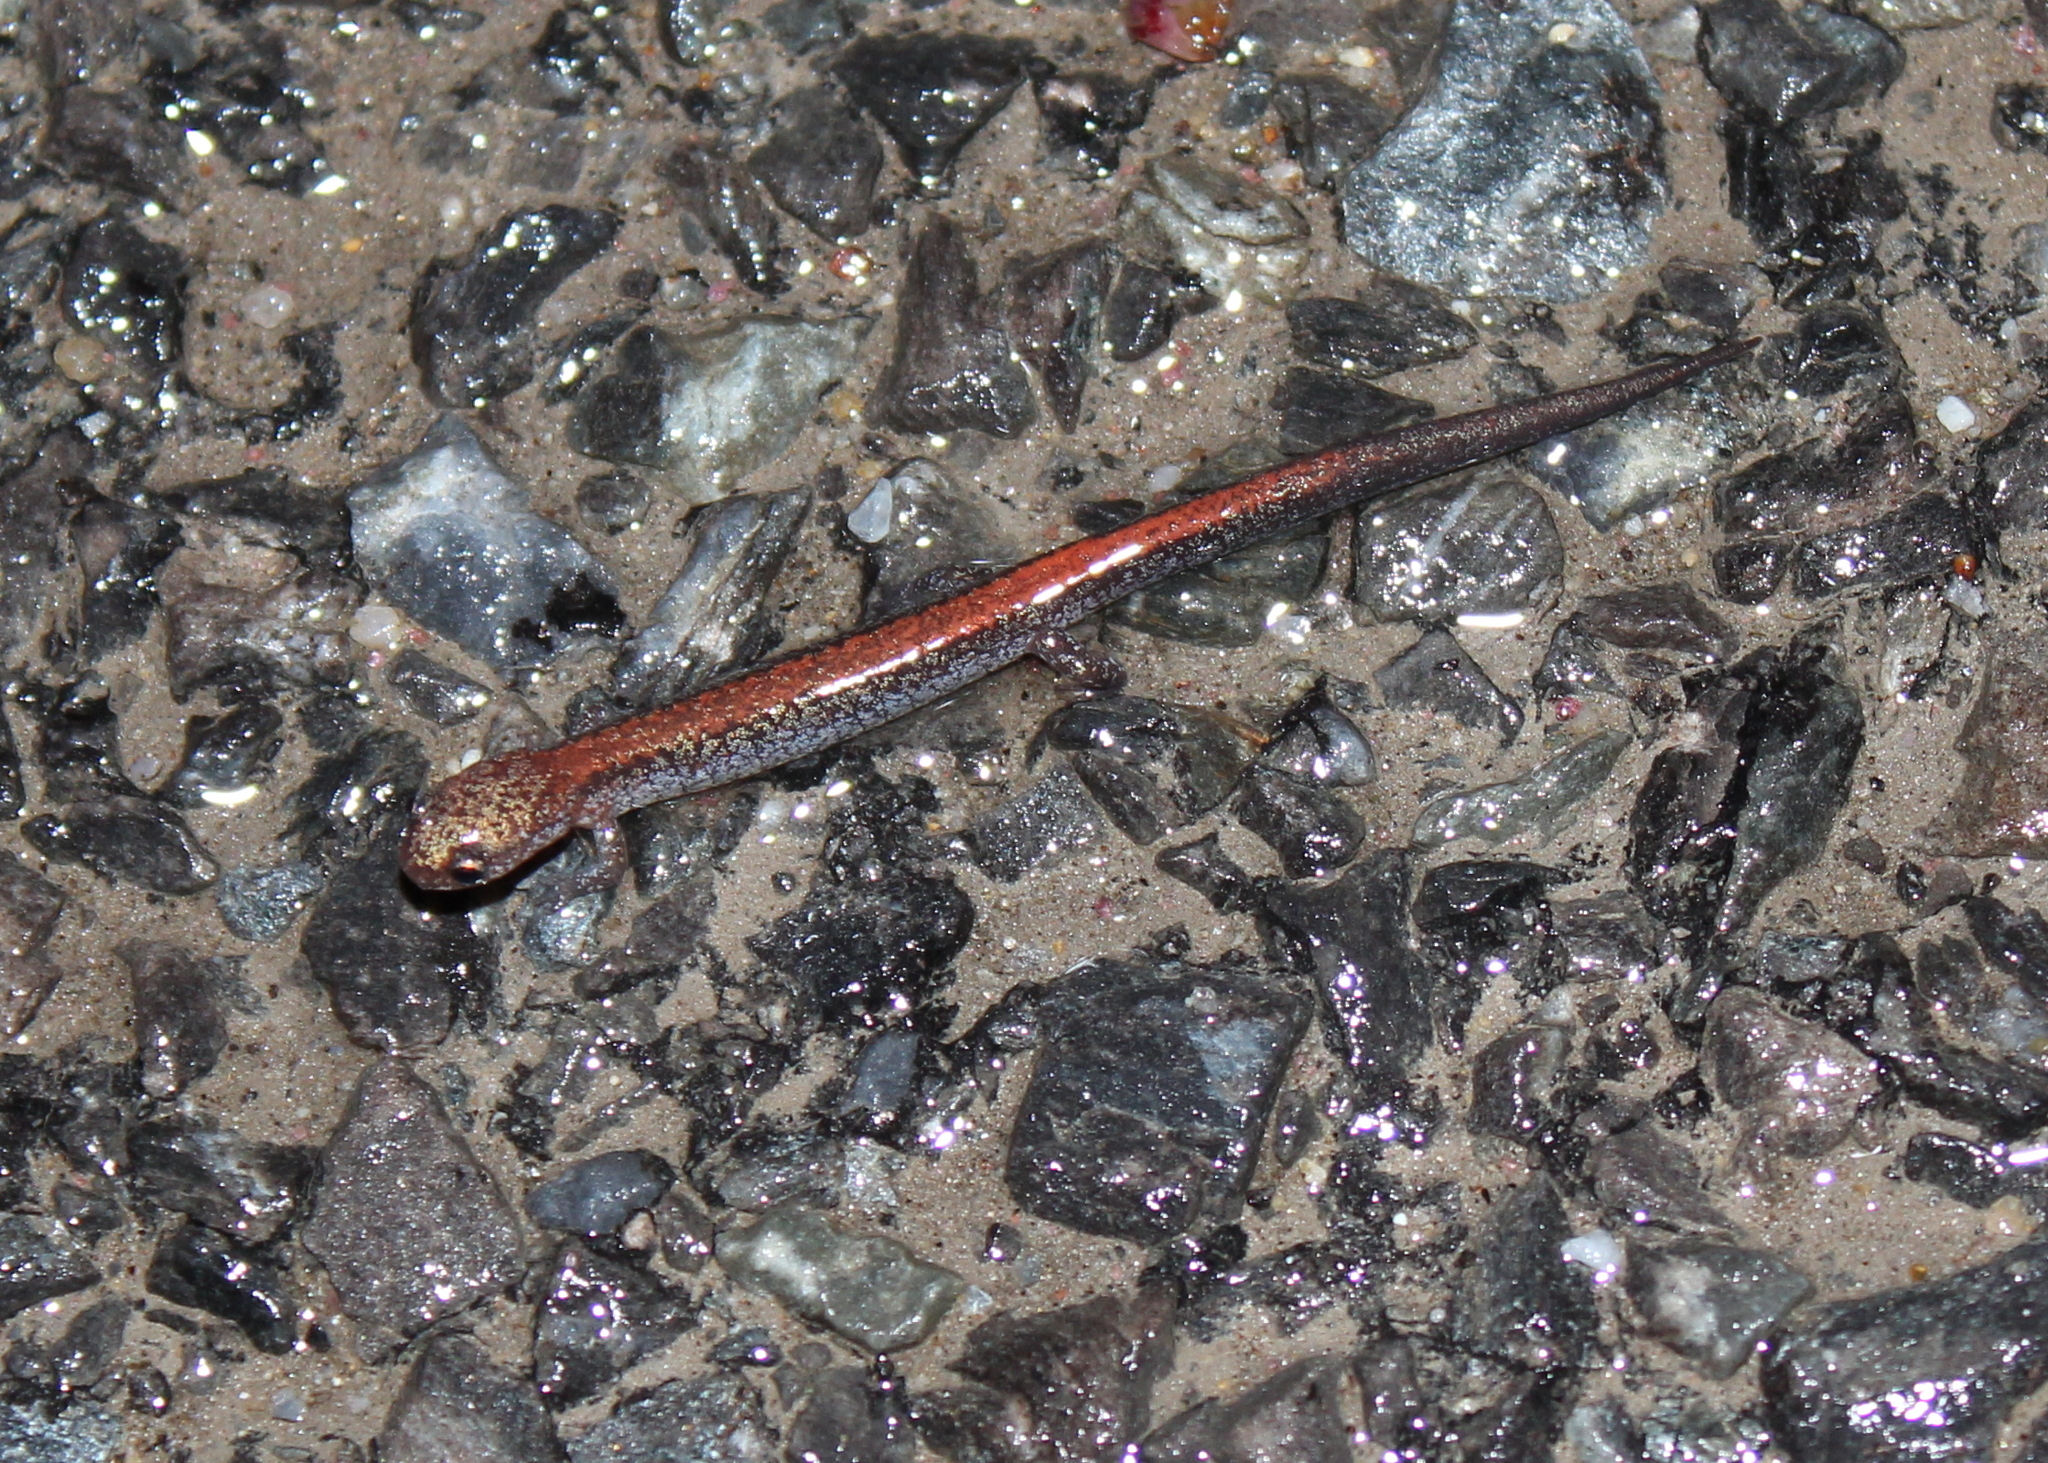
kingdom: Animalia
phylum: Chordata
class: Amphibia
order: Caudata
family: Plethodontidae
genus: Plethodon
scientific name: Plethodon cinereus
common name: Redback salamander
